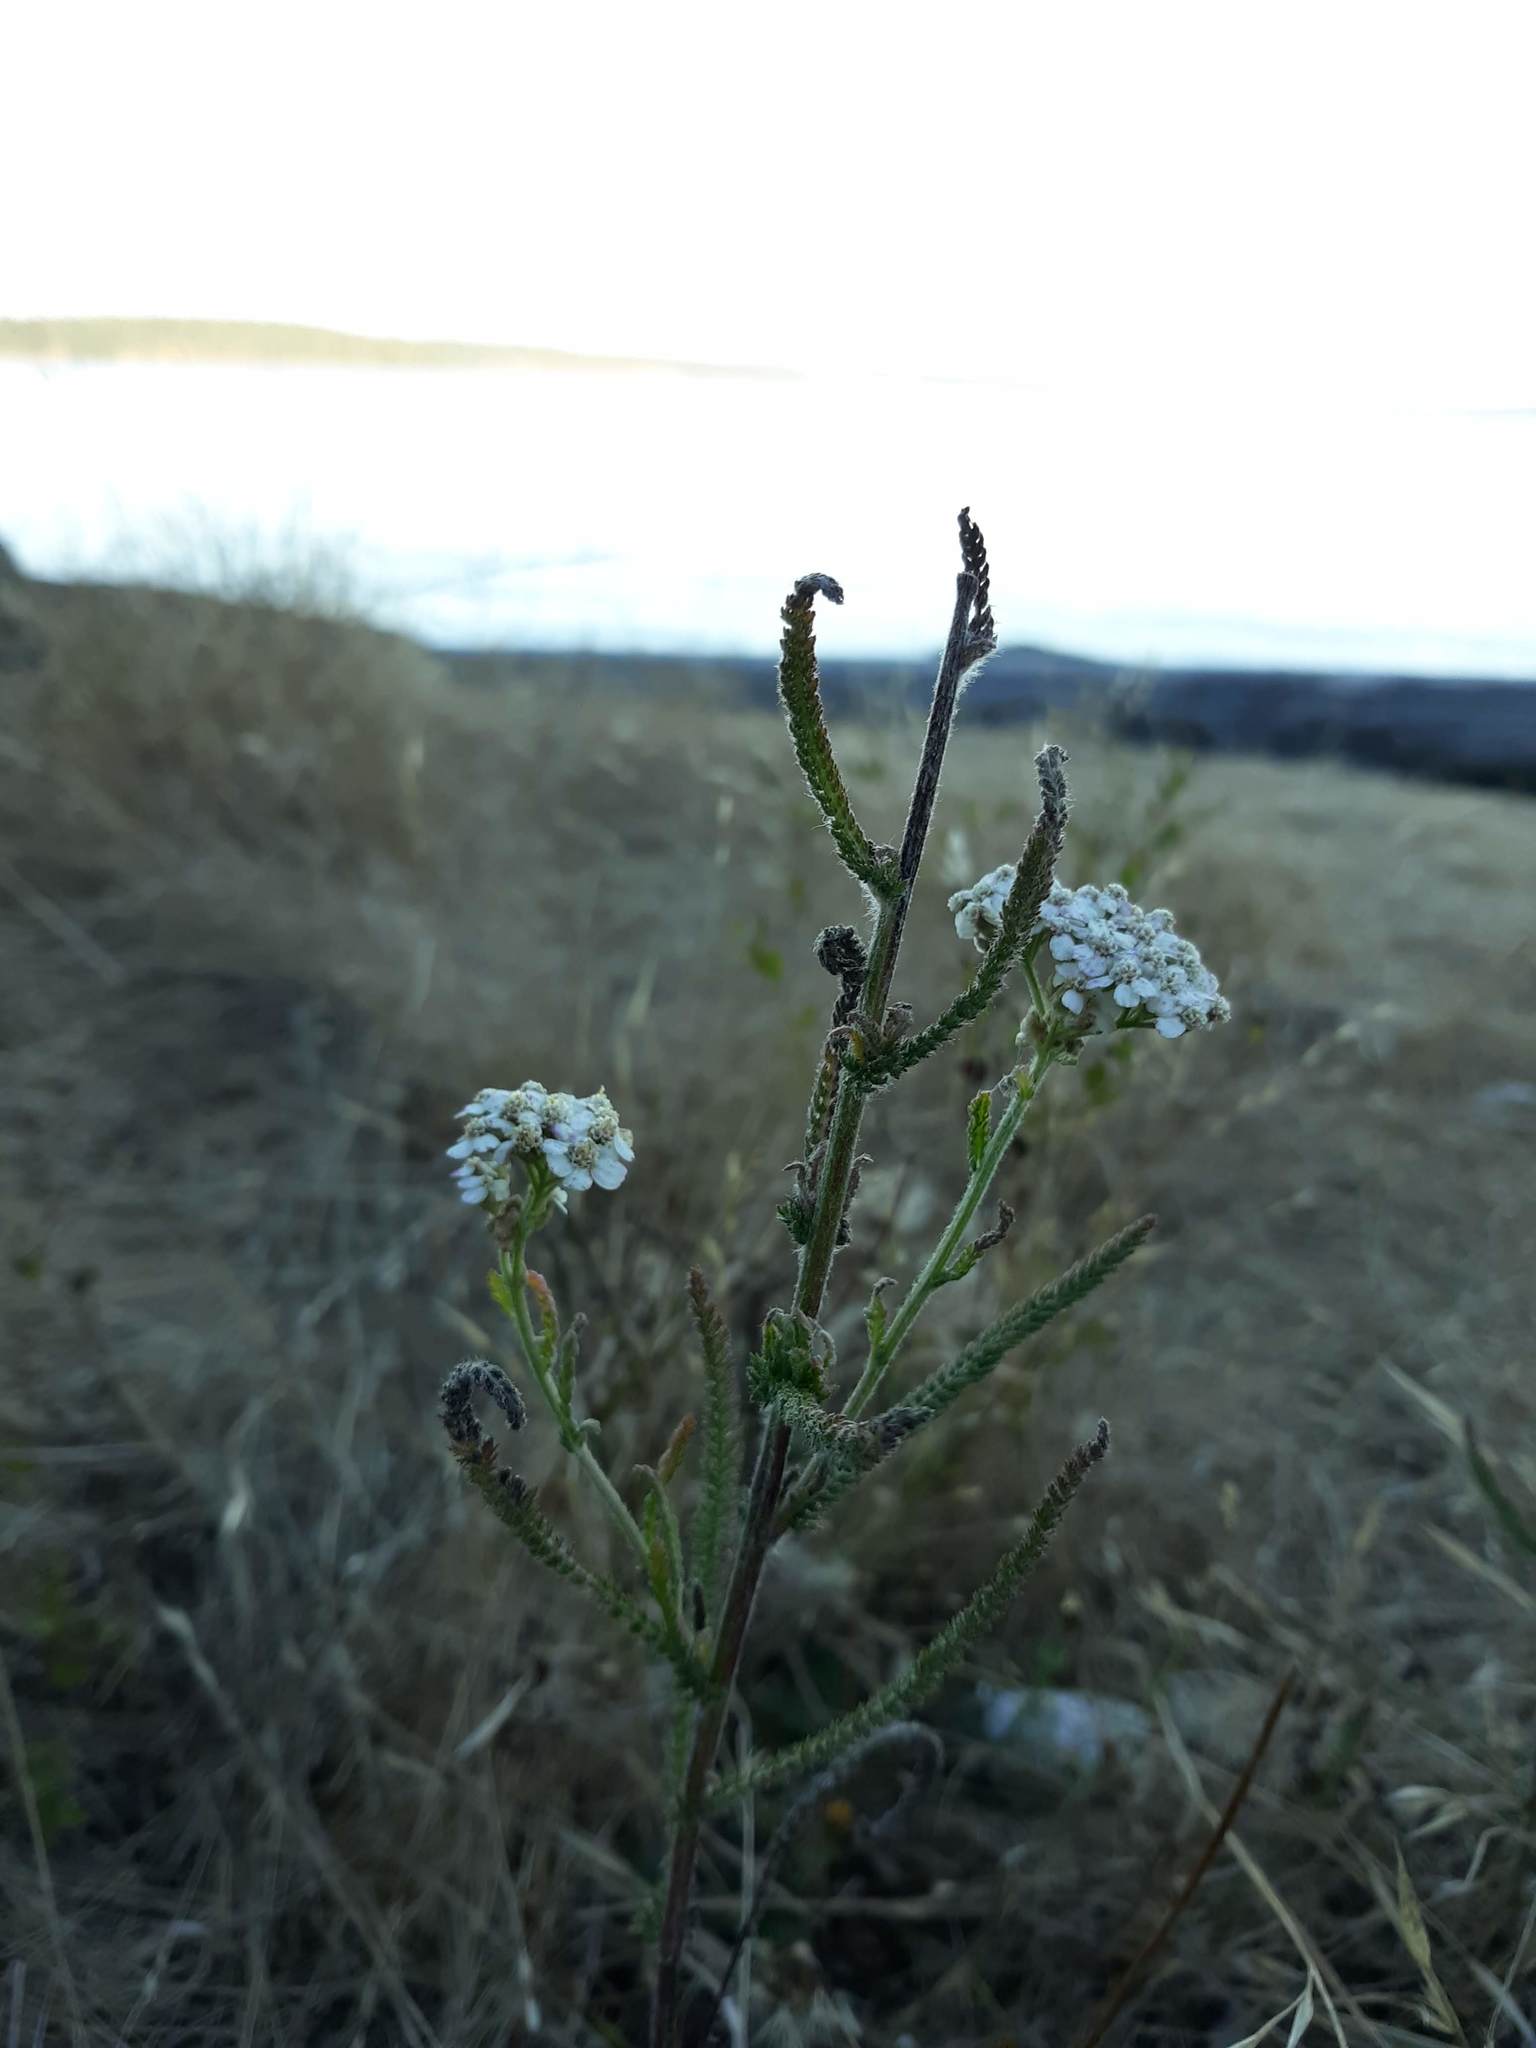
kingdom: Plantae
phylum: Tracheophyta
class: Magnoliopsida
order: Asterales
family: Asteraceae
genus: Achillea
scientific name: Achillea millefolium
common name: Yarrow
